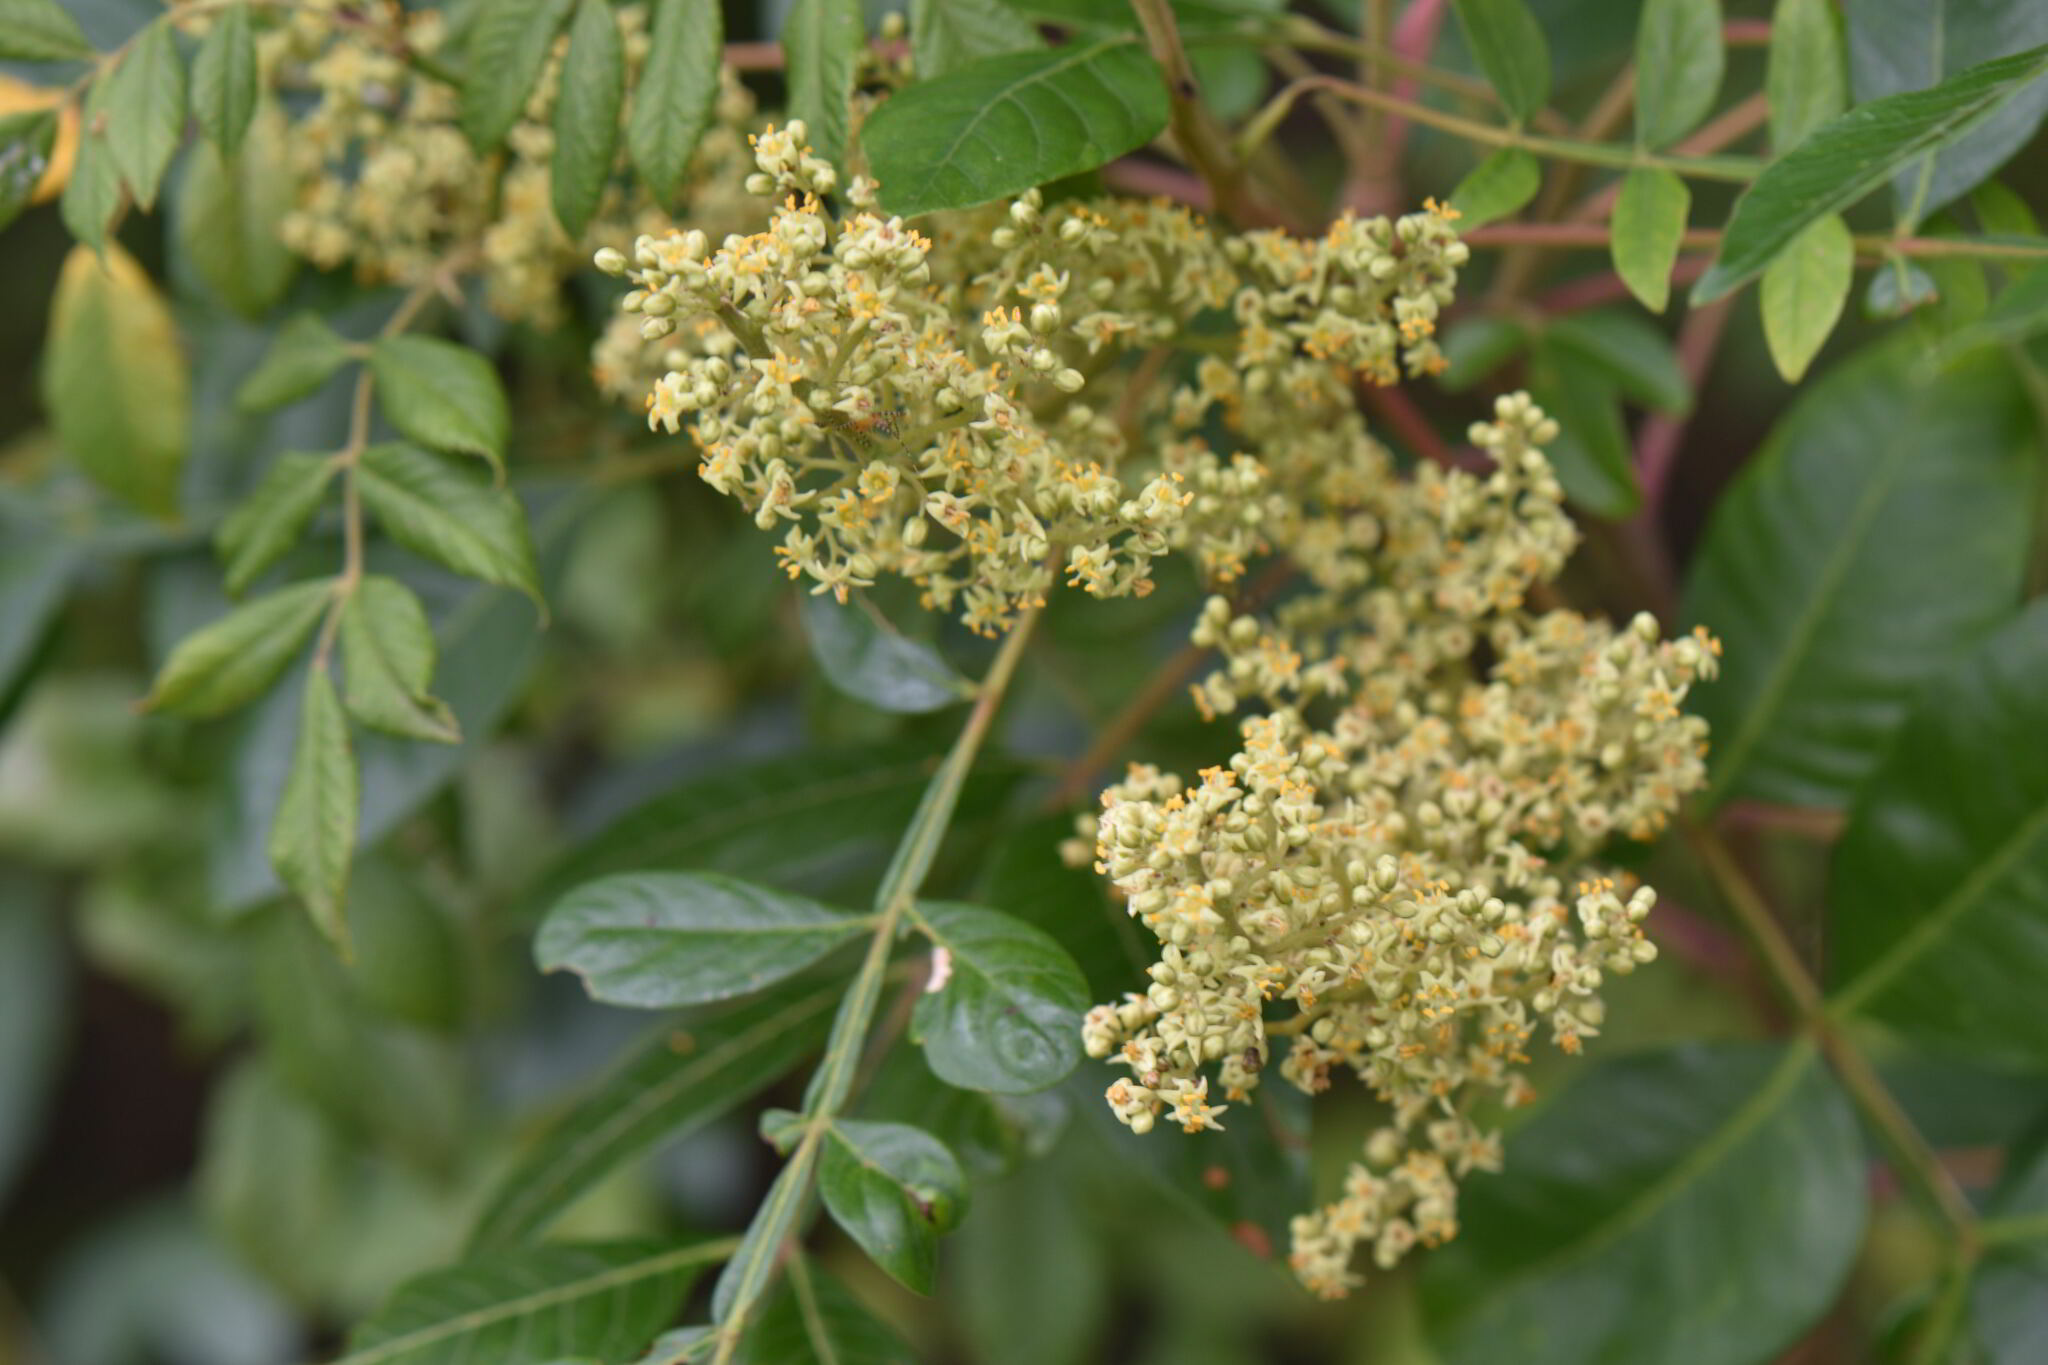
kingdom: Plantae
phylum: Tracheophyta
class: Magnoliopsida
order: Sapindales
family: Anacardiaceae
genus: Rhus
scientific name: Rhus copallina
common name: Shining sumac
